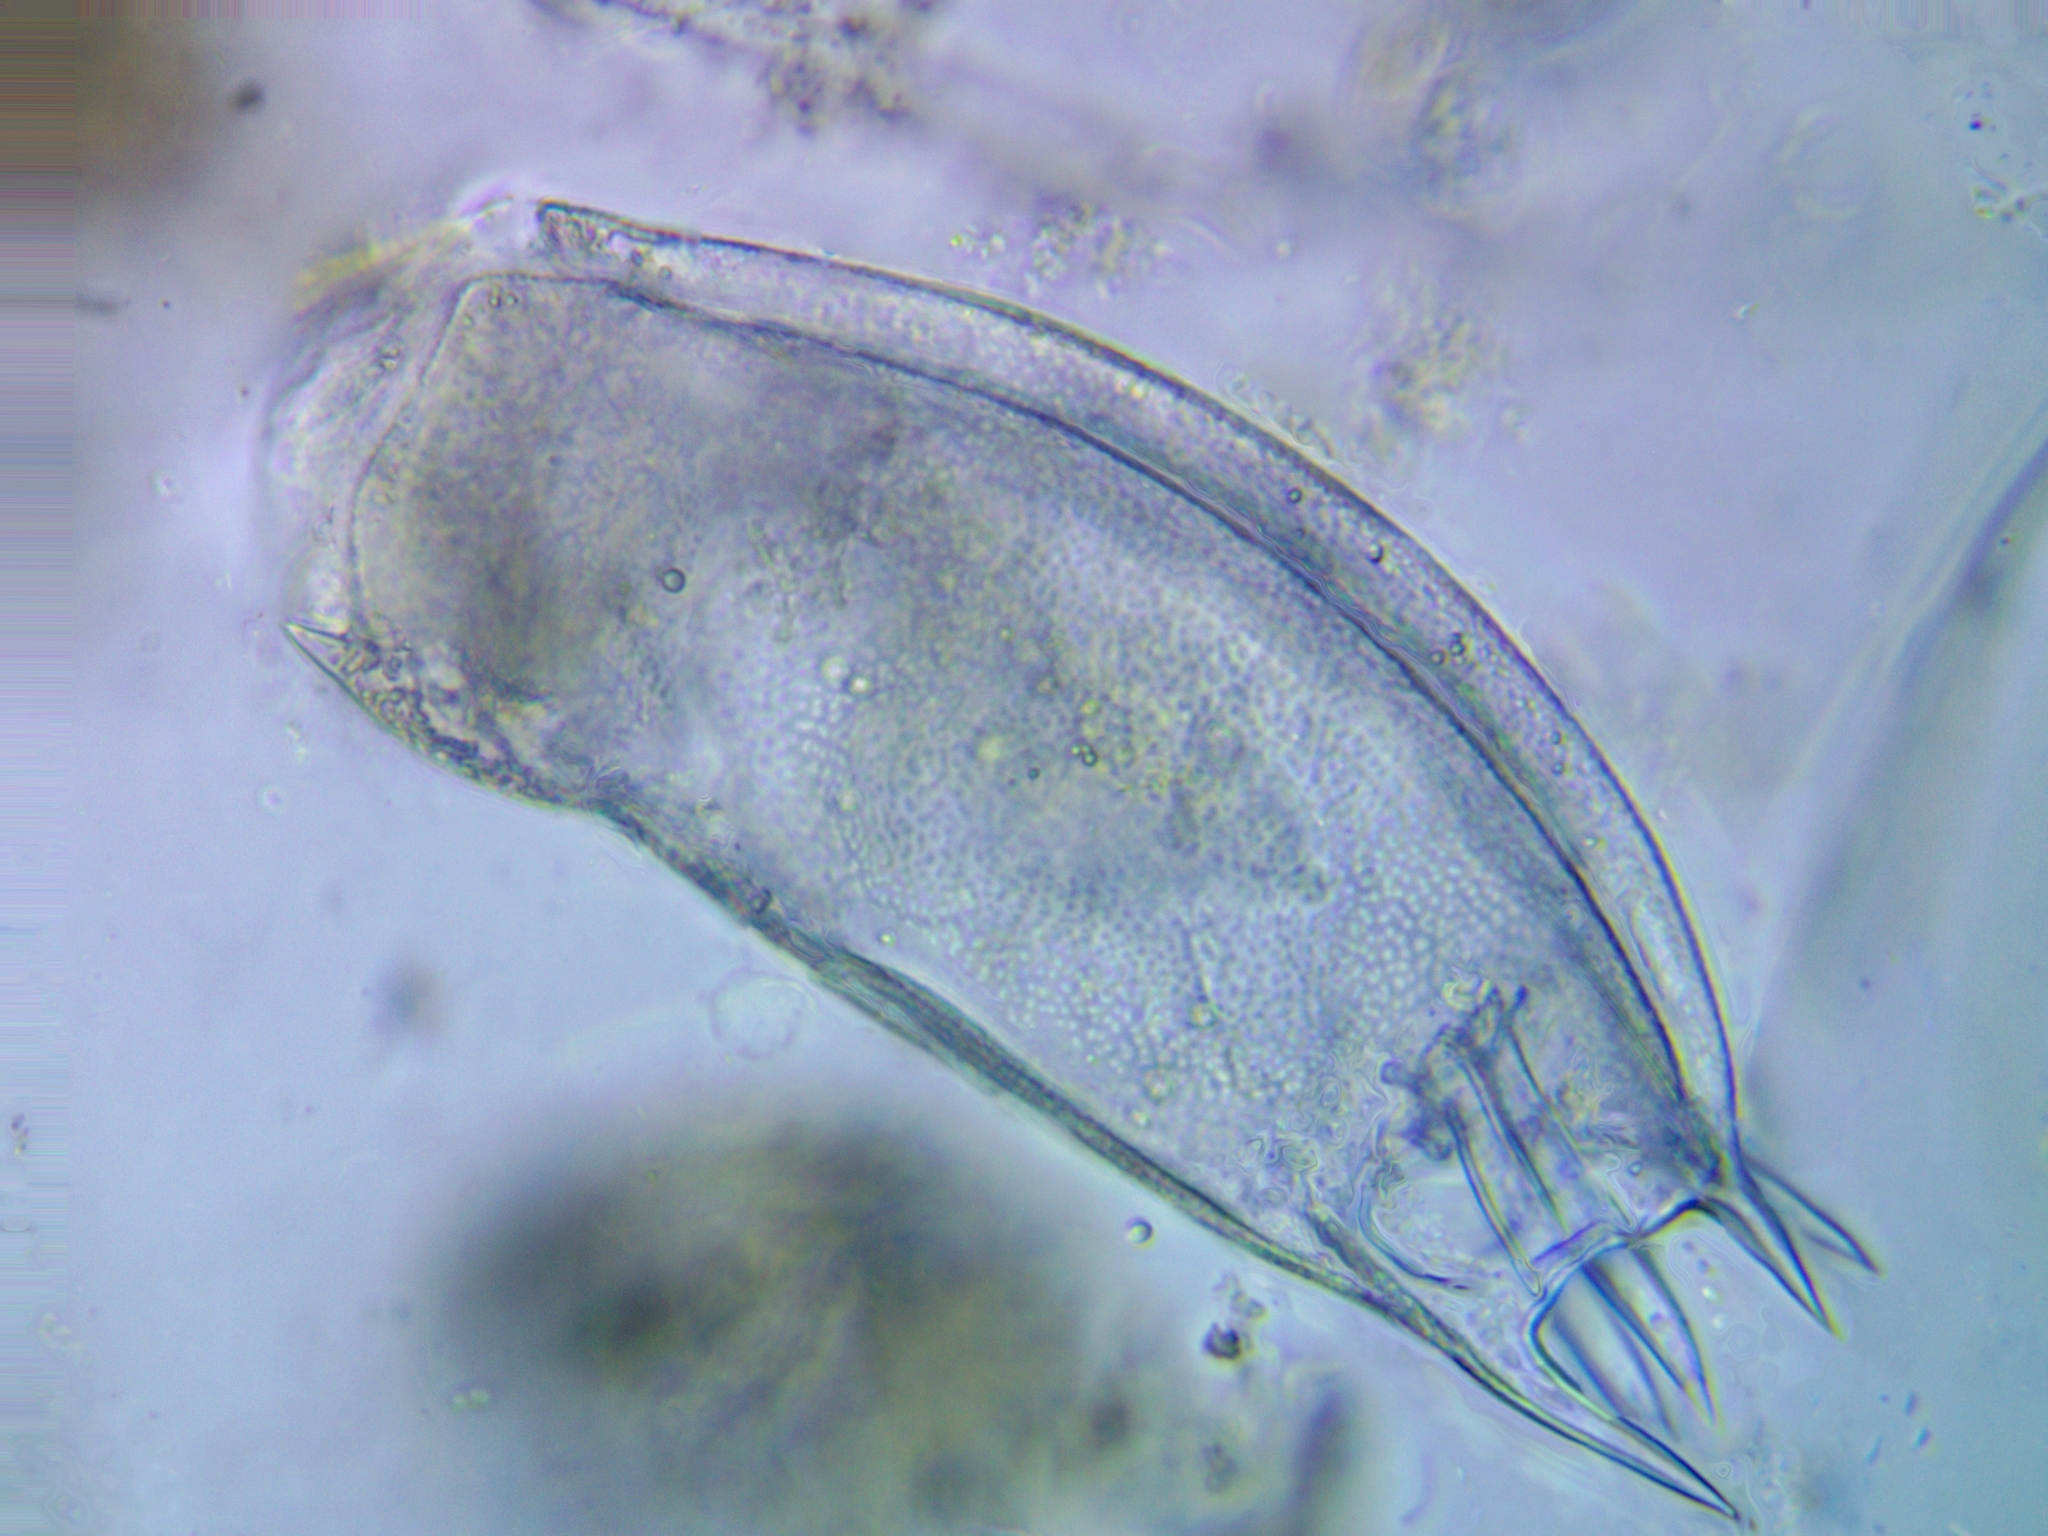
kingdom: Animalia
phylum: Rotifera
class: Eurotatoria
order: Ploima
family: Mytilinidae
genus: Mytilina
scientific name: Mytilina ventralis
